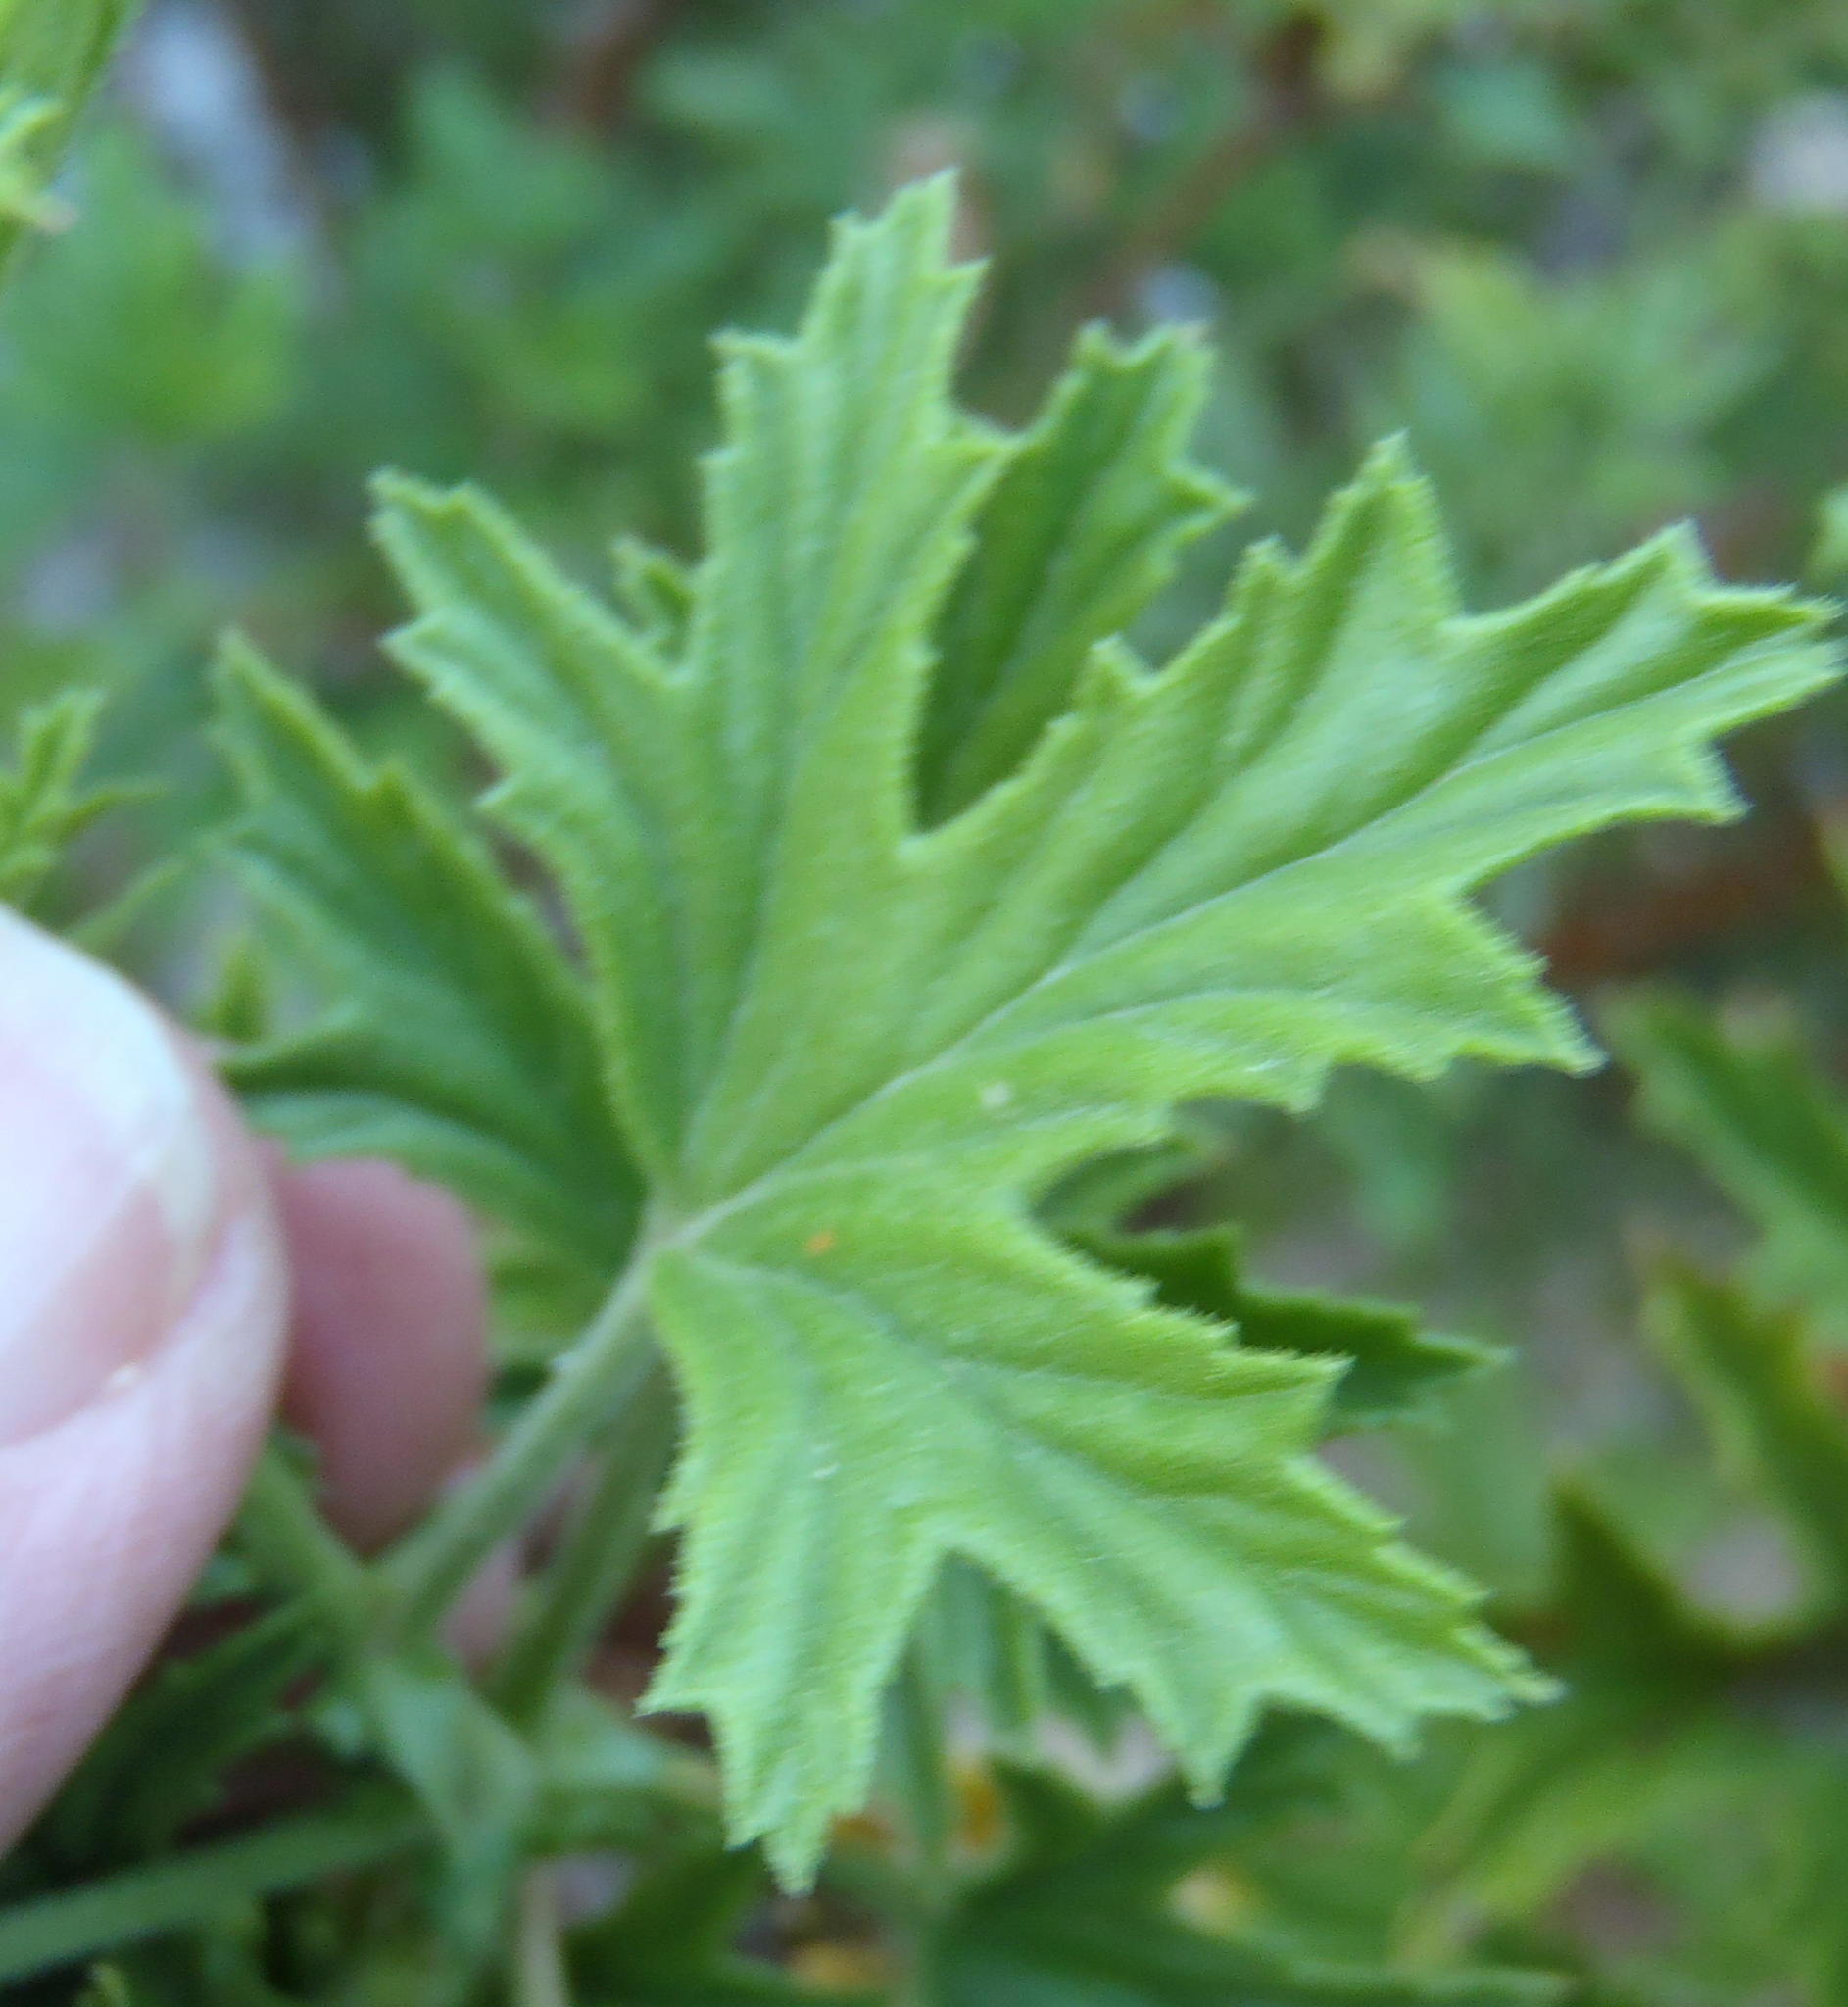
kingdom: Plantae
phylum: Tracheophyta
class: Magnoliopsida
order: Geraniales
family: Geraniaceae
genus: Pelargonium
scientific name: Pelargonium ribifolium
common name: Currant-leaf pelargonium
